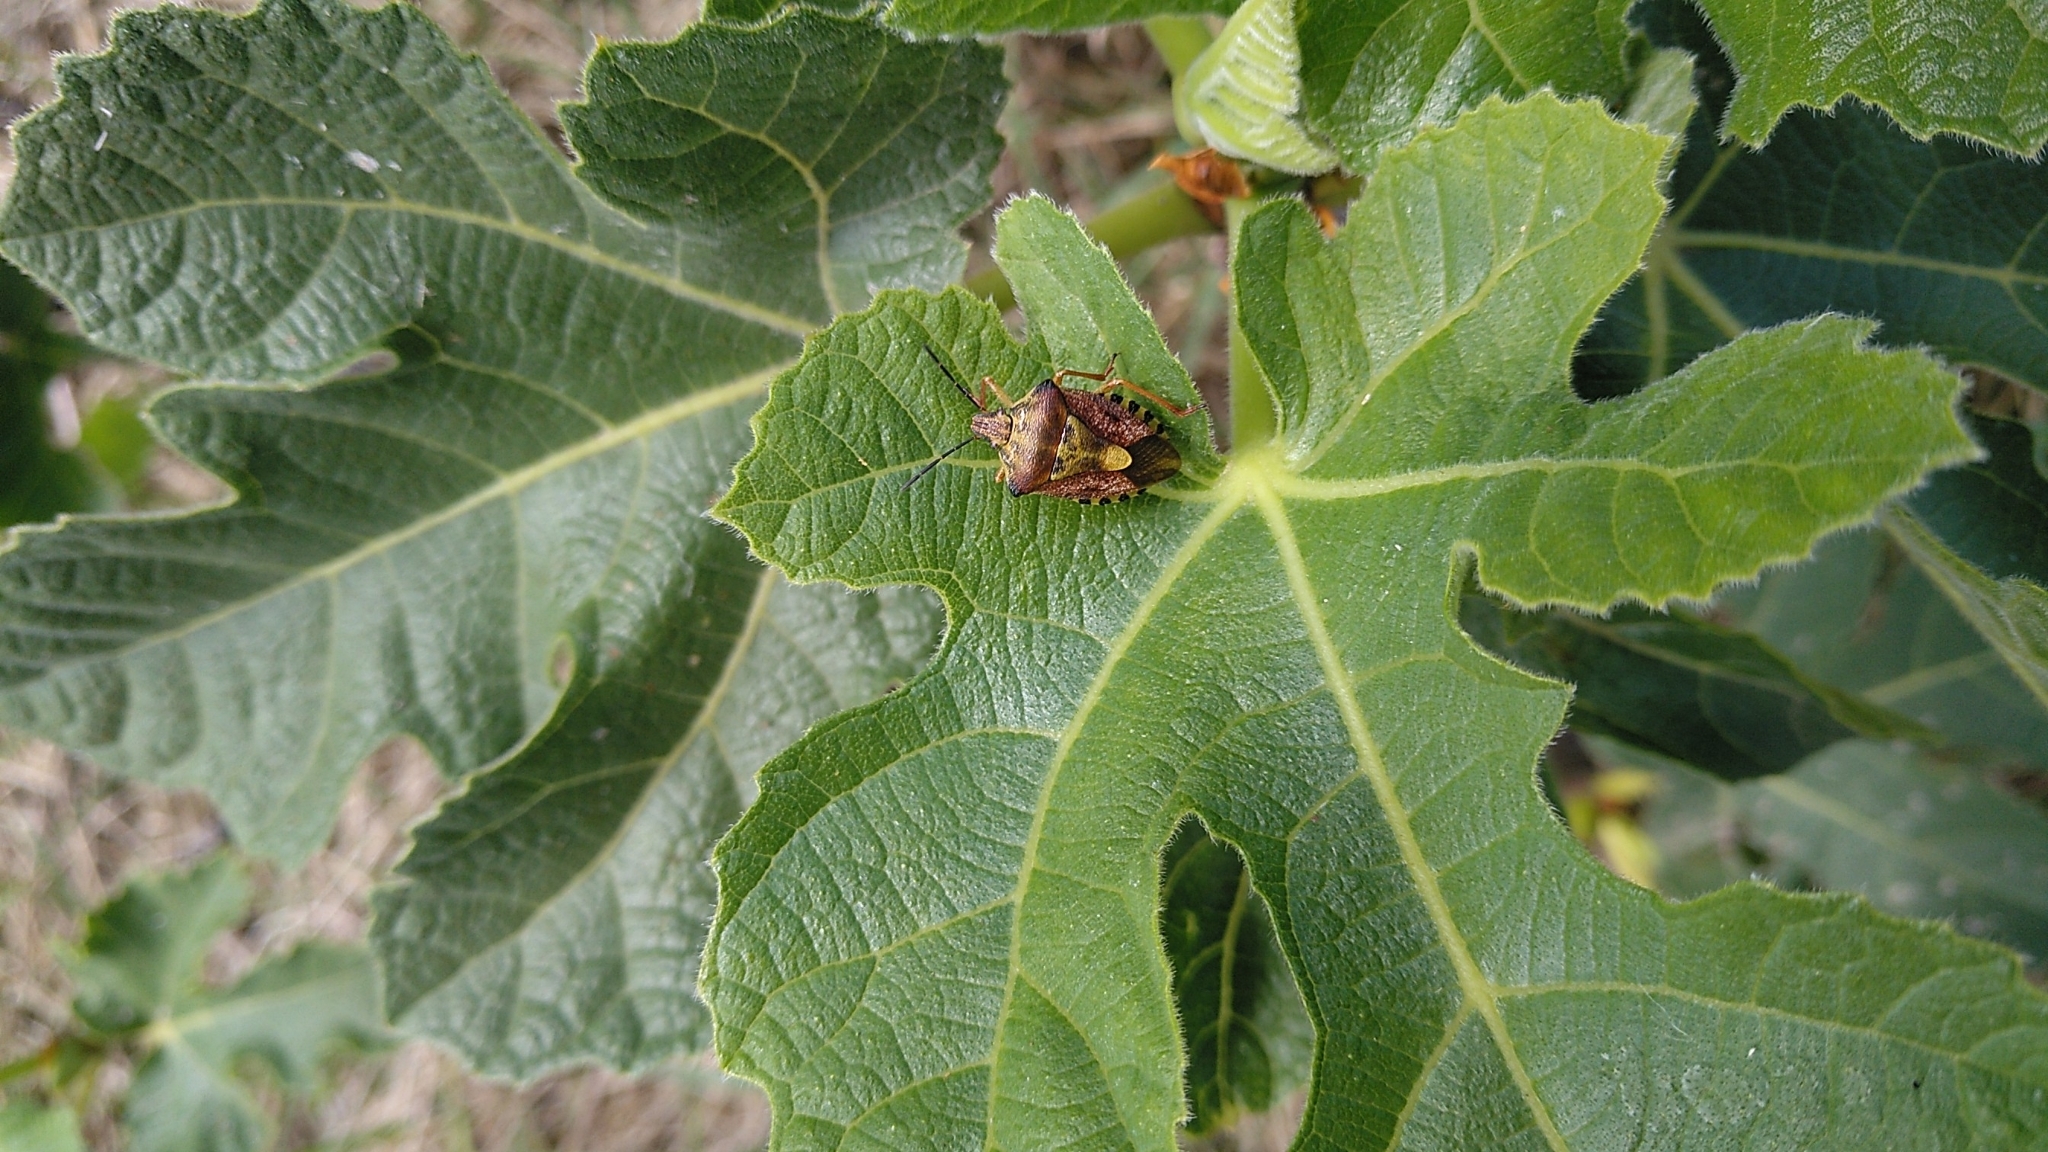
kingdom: Animalia
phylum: Arthropoda
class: Insecta
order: Hemiptera
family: Pentatomidae
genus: Carpocoris
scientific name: Carpocoris purpureipennis
